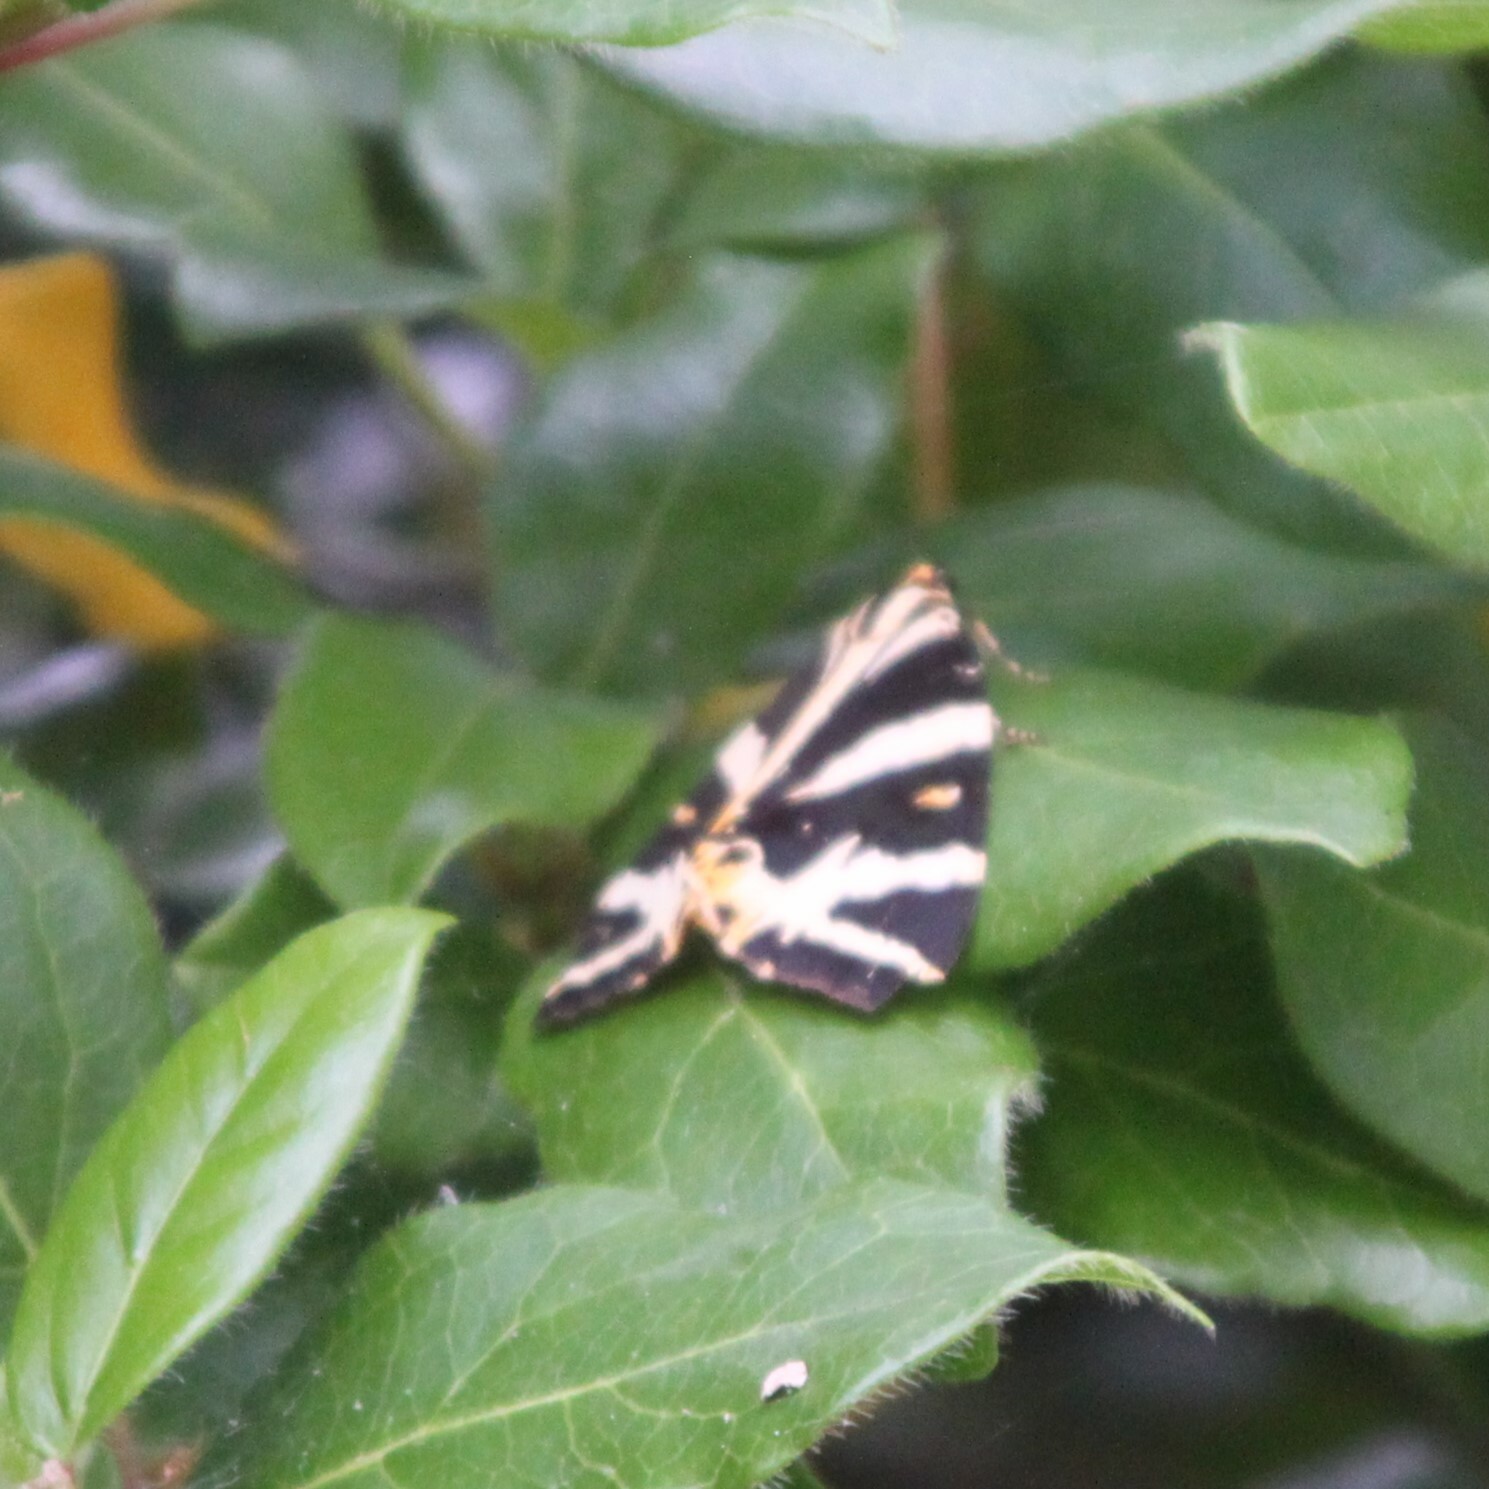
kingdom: Animalia
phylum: Arthropoda
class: Insecta
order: Lepidoptera
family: Erebidae
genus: Euplagia
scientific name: Euplagia quadripunctaria
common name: Jersey tiger
